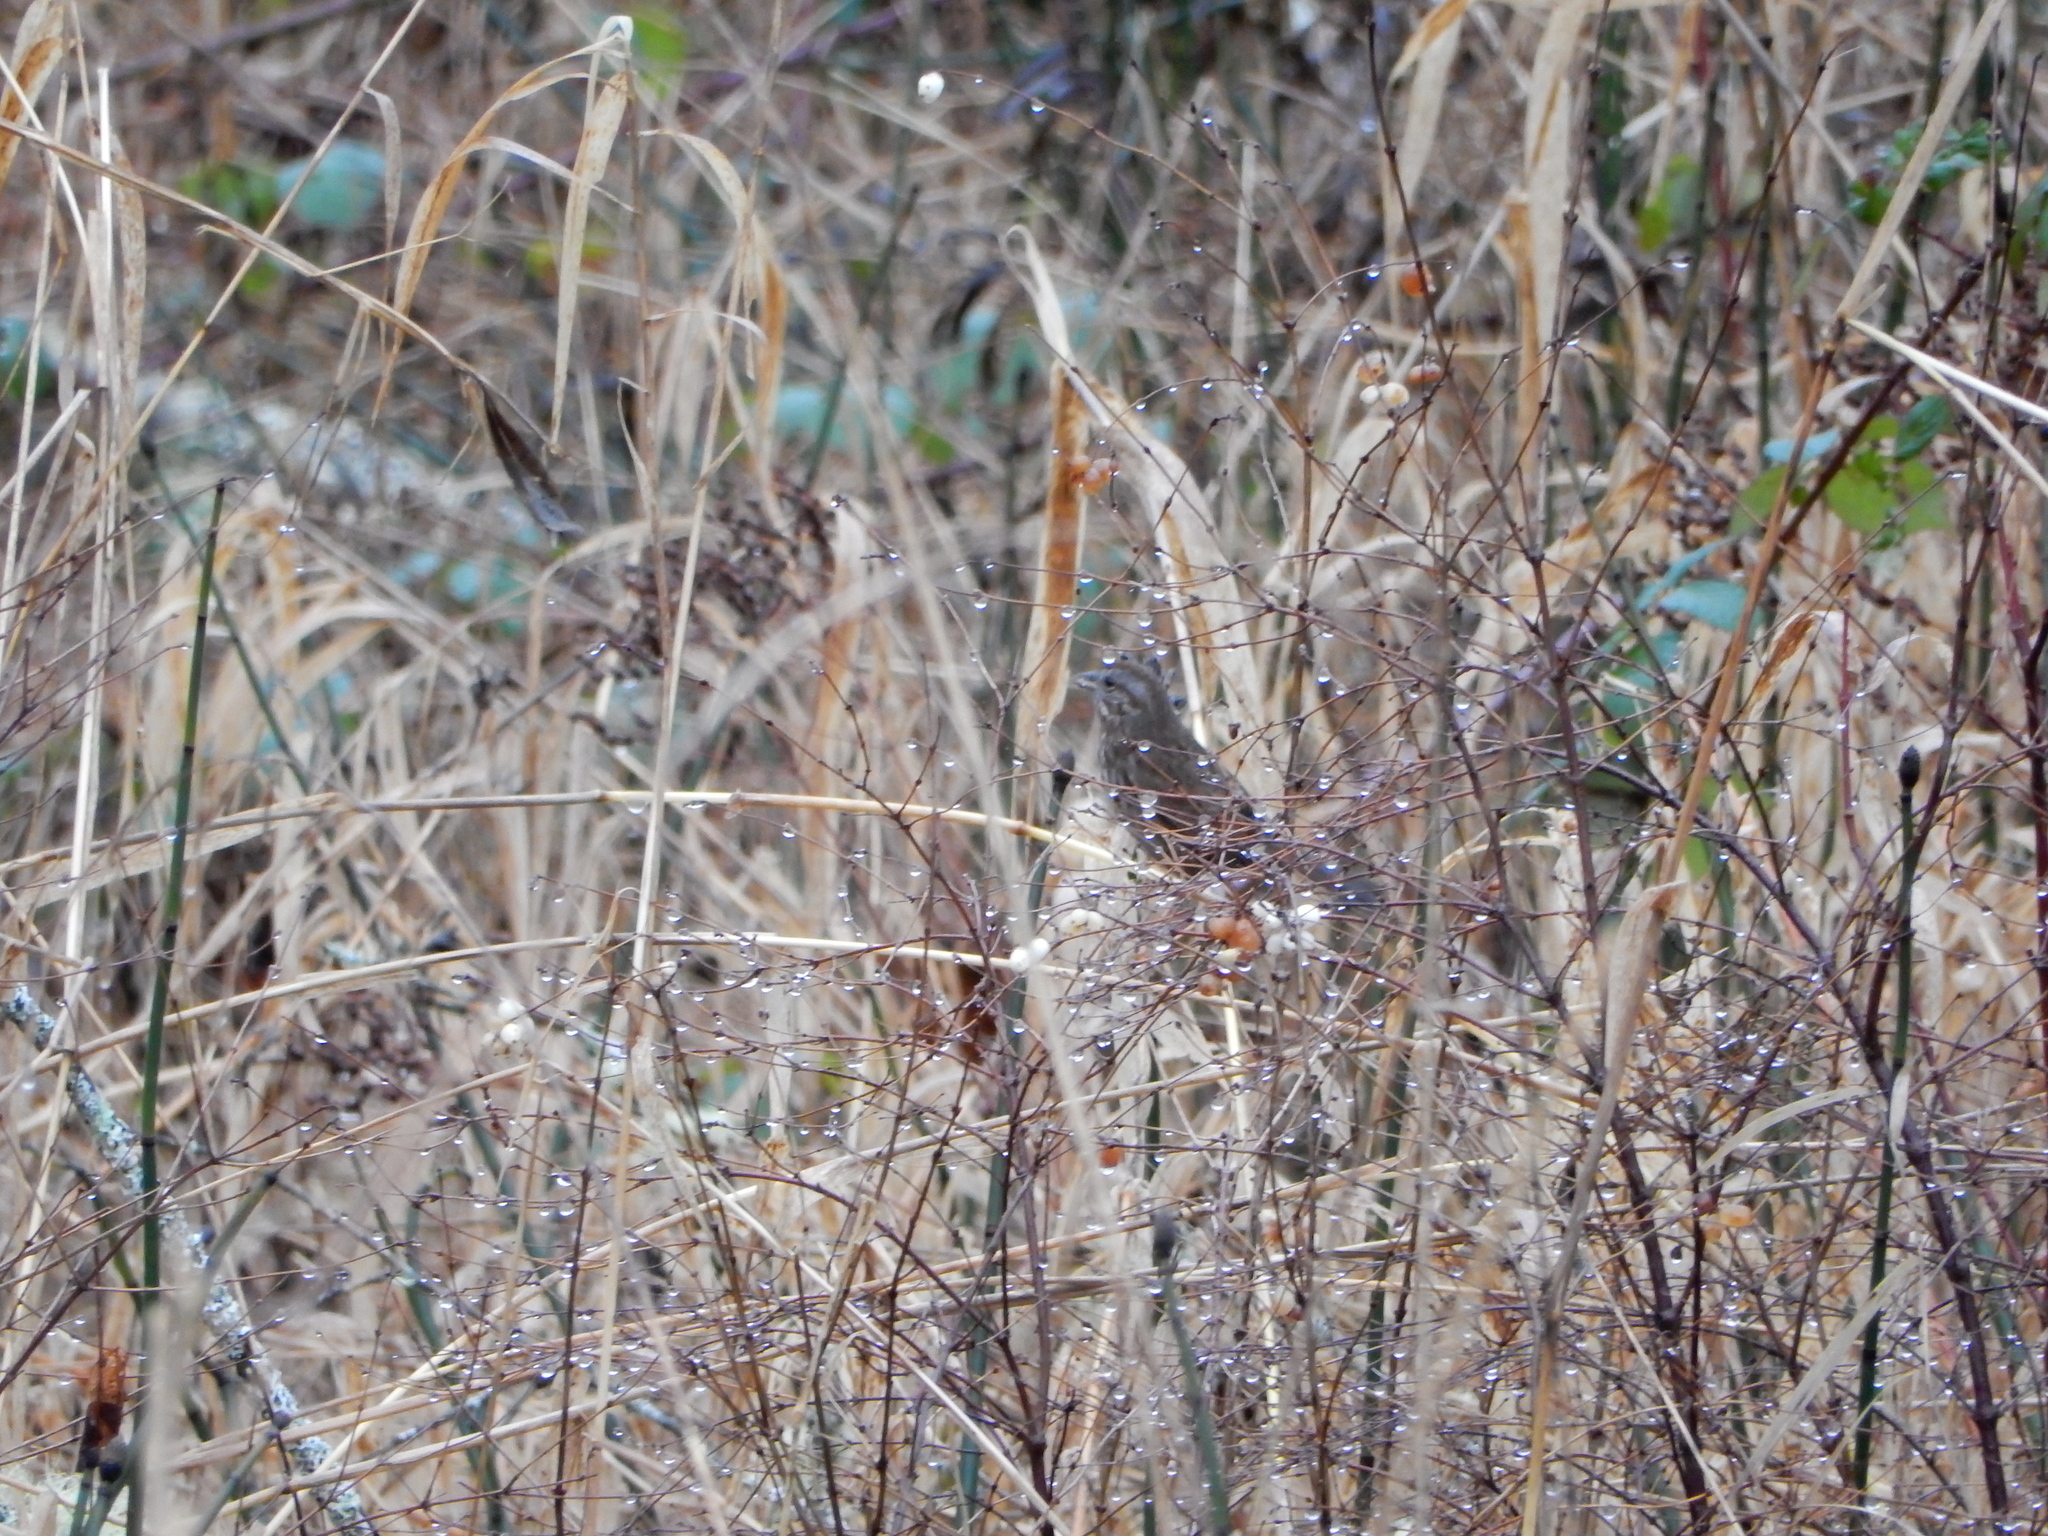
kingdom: Animalia
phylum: Chordata
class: Aves
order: Passeriformes
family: Passerellidae
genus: Melospiza
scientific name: Melospiza melodia
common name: Song sparrow
